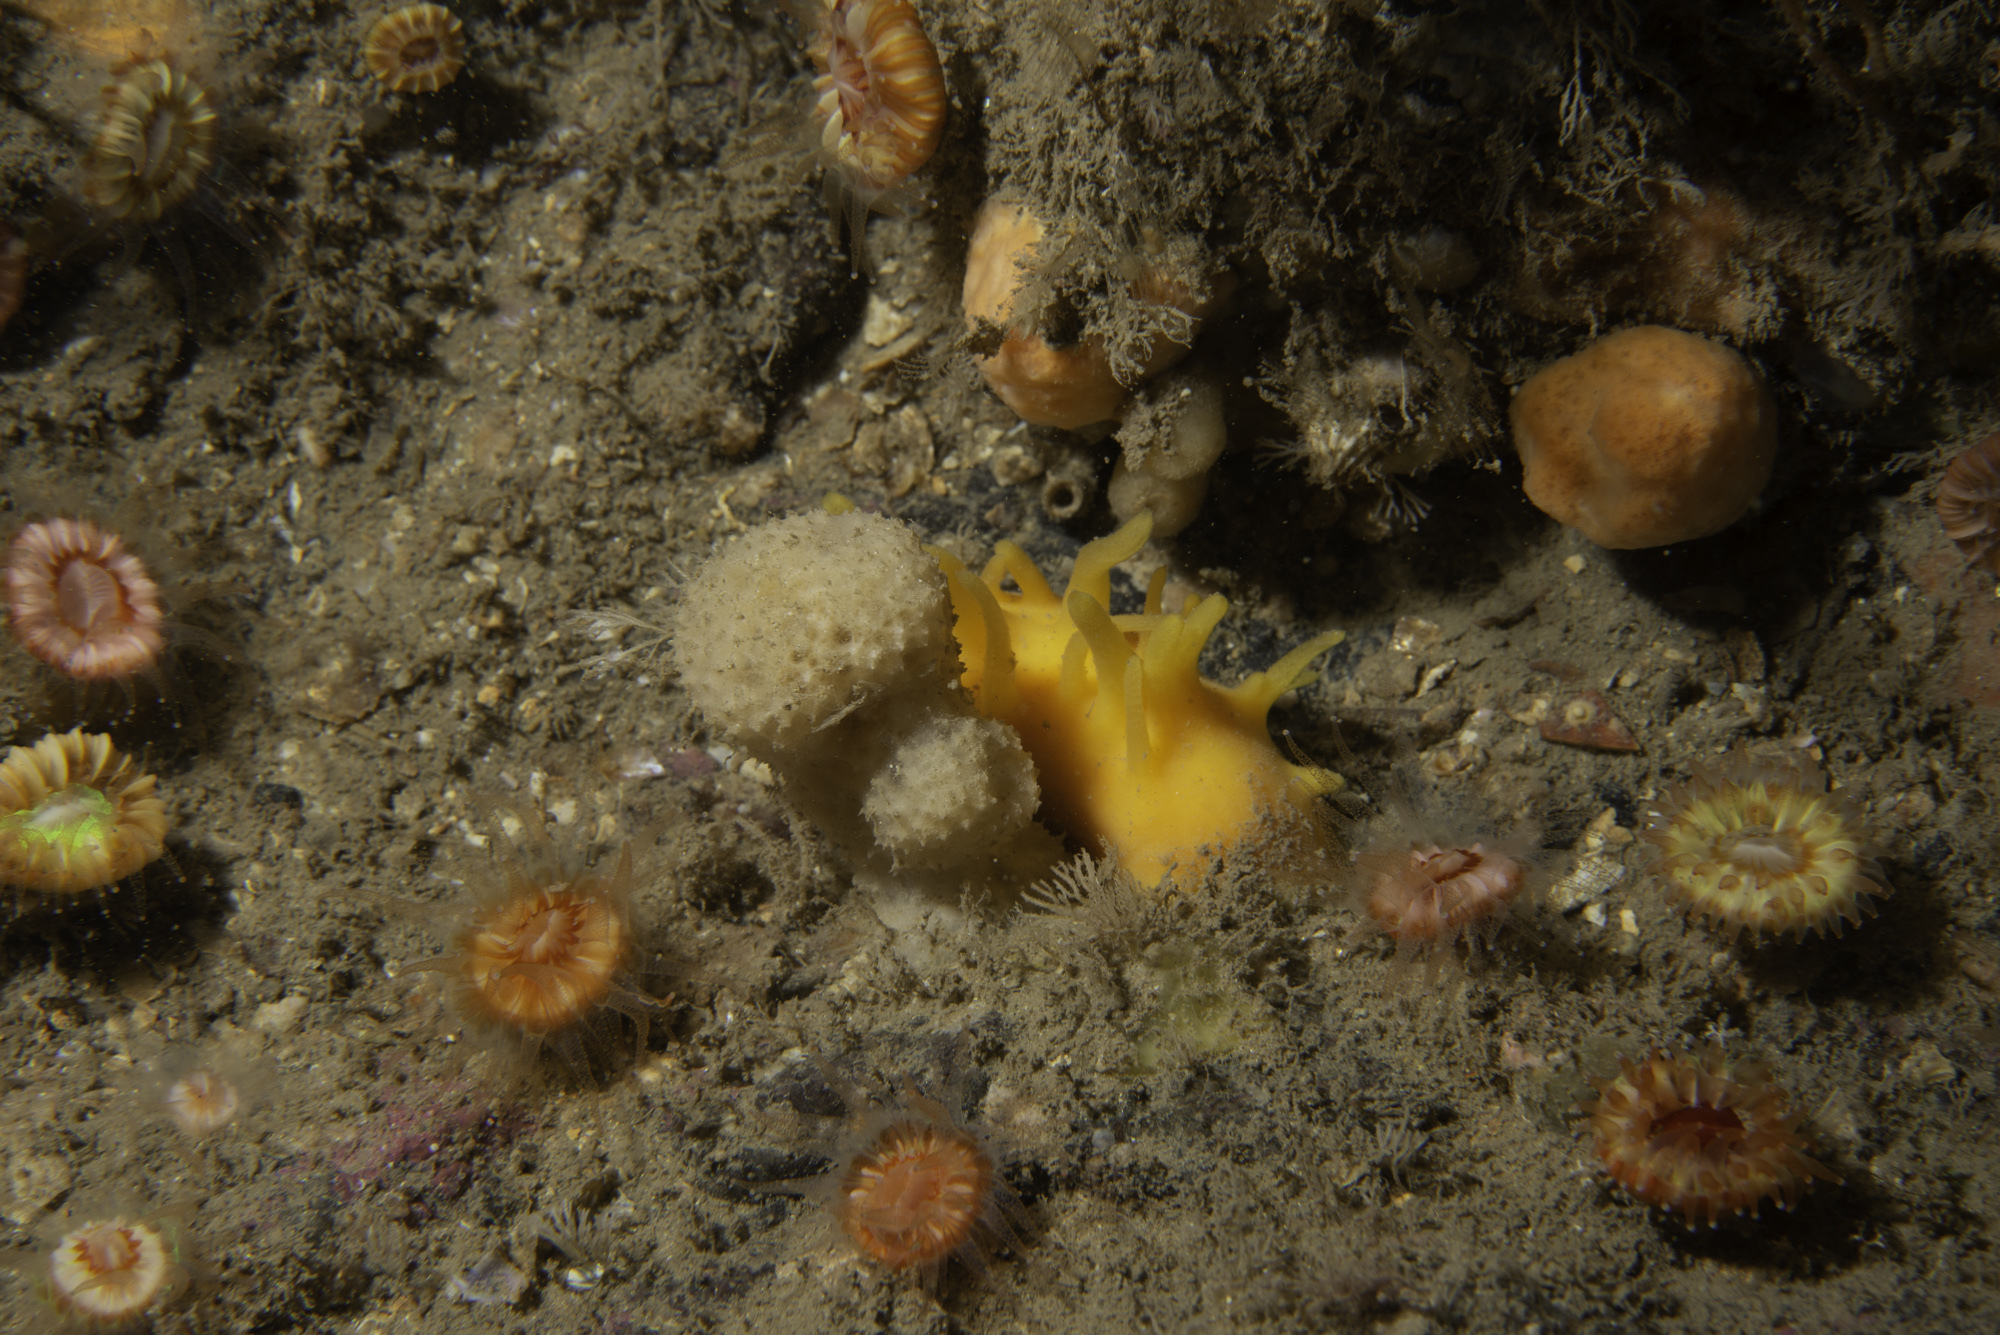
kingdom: Animalia
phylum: Porifera
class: Demospongiae
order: Dictyoceratida
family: Dysideidae
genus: Dysidea
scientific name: Dysidea fragilis
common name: Goosebump sponge
